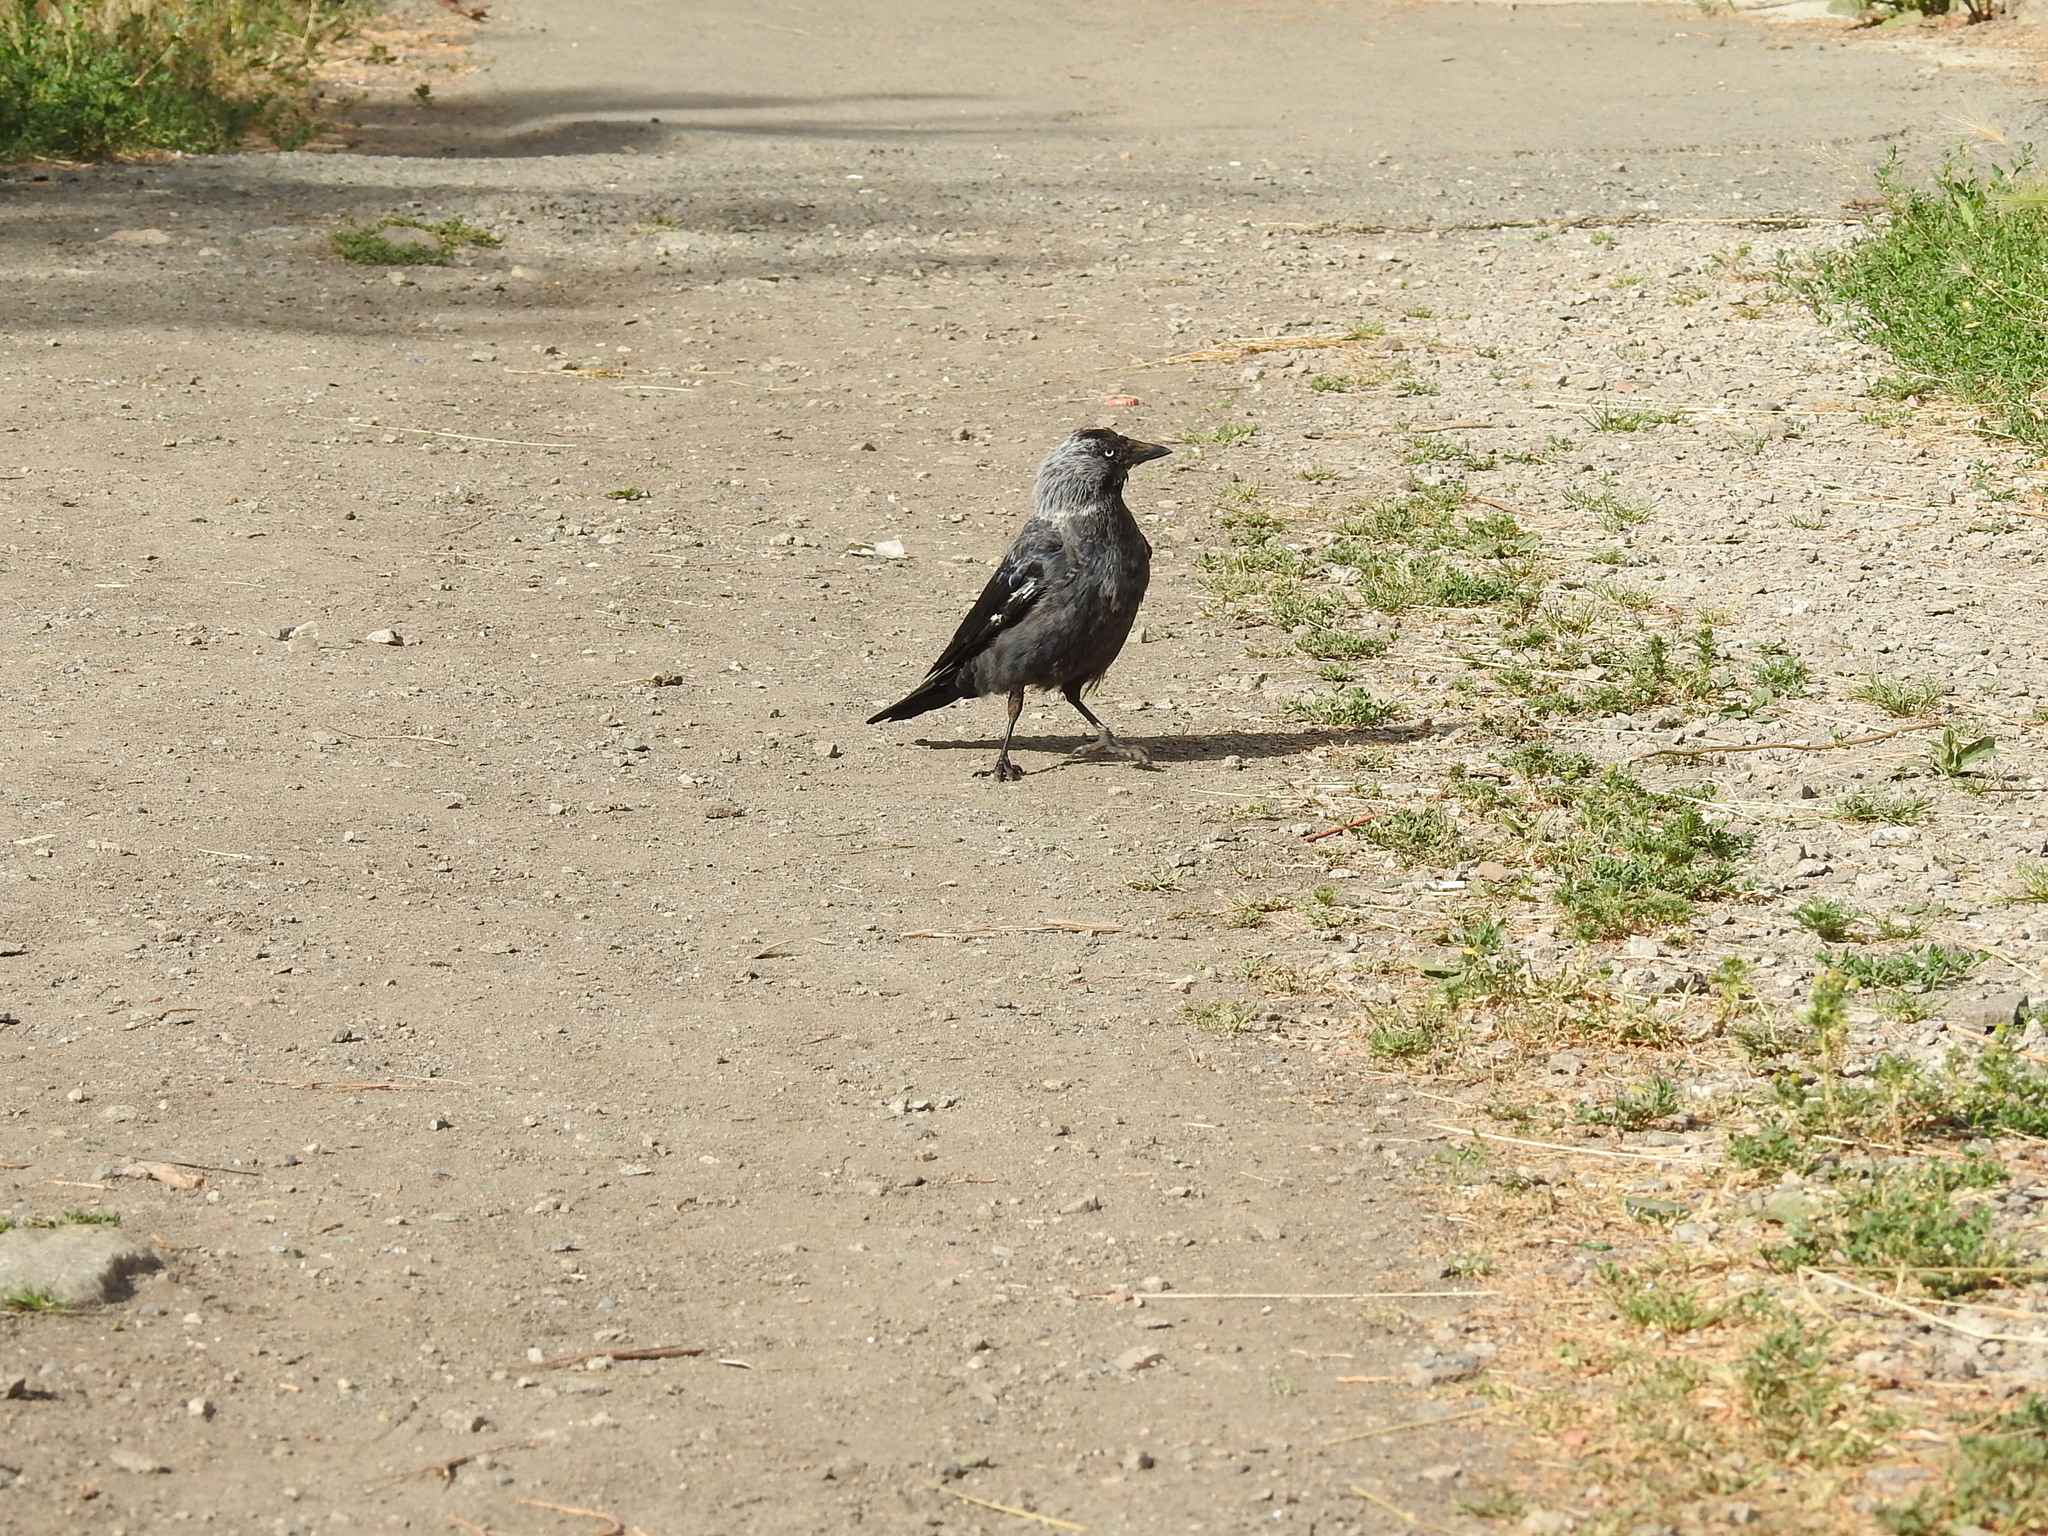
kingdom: Animalia
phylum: Chordata
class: Aves
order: Passeriformes
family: Corvidae
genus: Coloeus
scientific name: Coloeus monedula
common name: Western jackdaw
